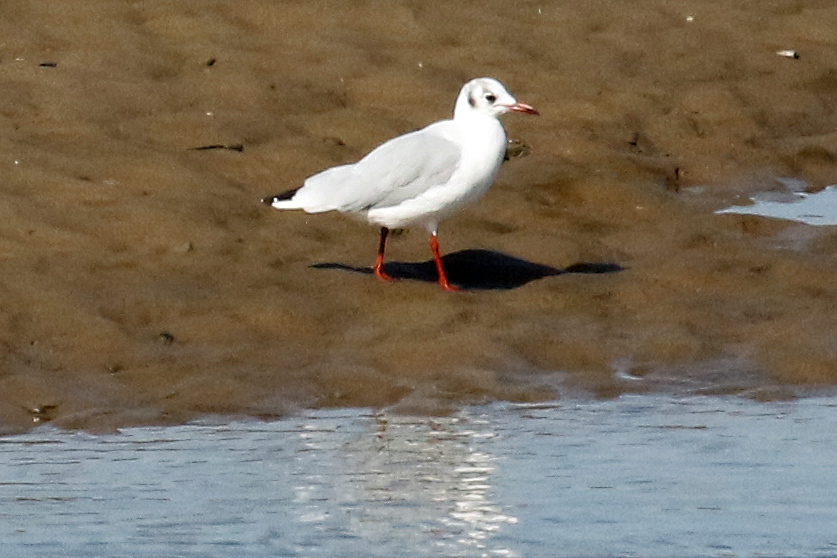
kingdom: Animalia
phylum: Chordata
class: Aves
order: Charadriiformes
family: Laridae
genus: Chroicocephalus
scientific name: Chroicocephalus ridibundus
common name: Black-headed gull
